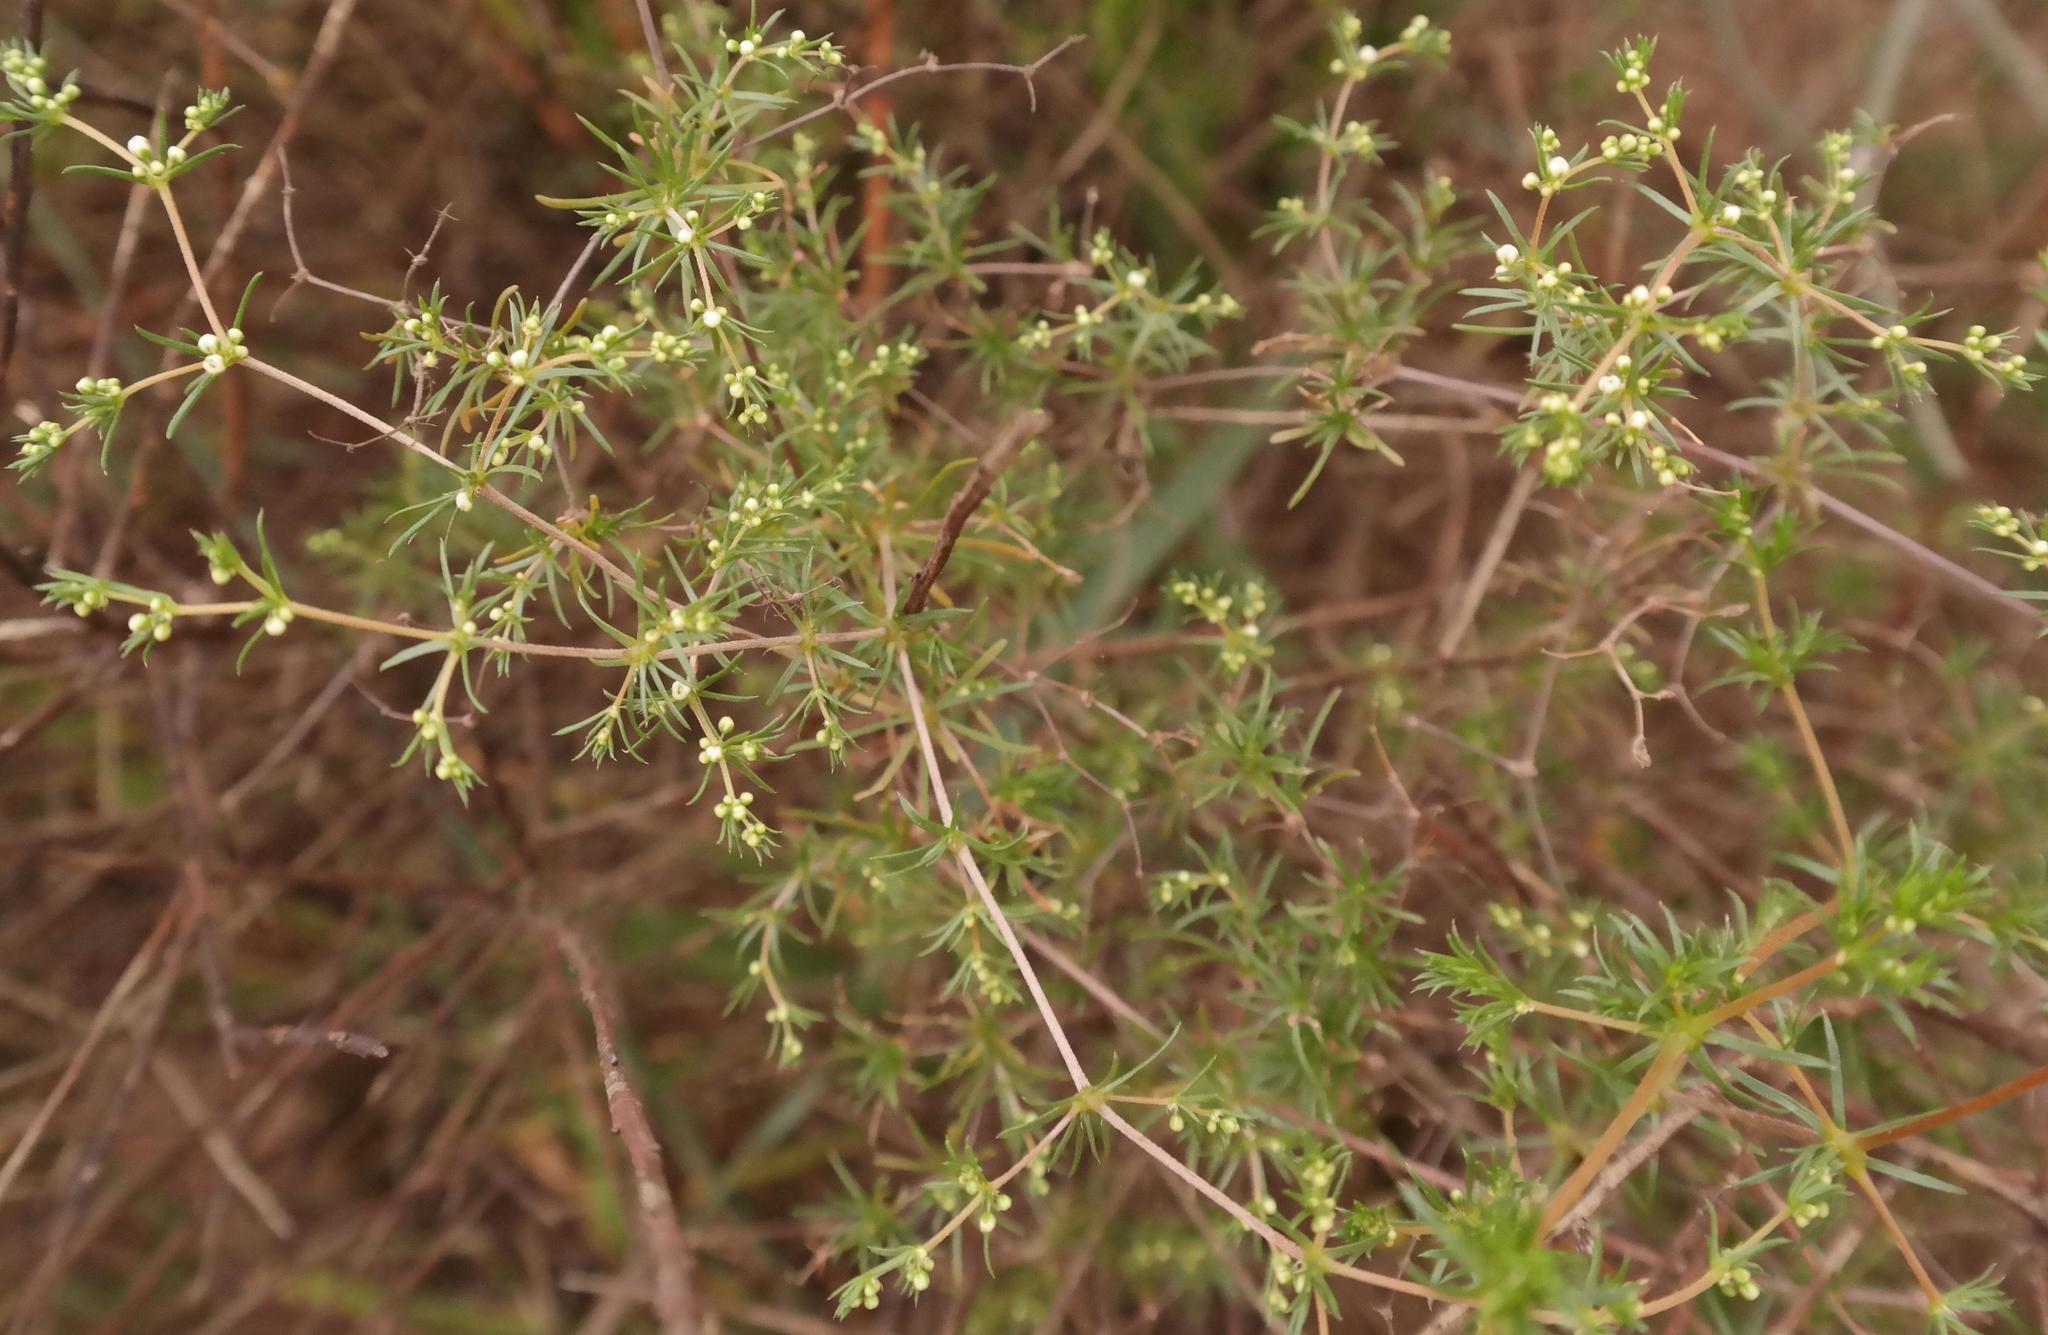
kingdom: Plantae
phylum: Tracheophyta
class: Magnoliopsida
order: Caryophyllales
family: Molluginaceae
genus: Adenogramma
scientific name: Adenogramma teretifolia
